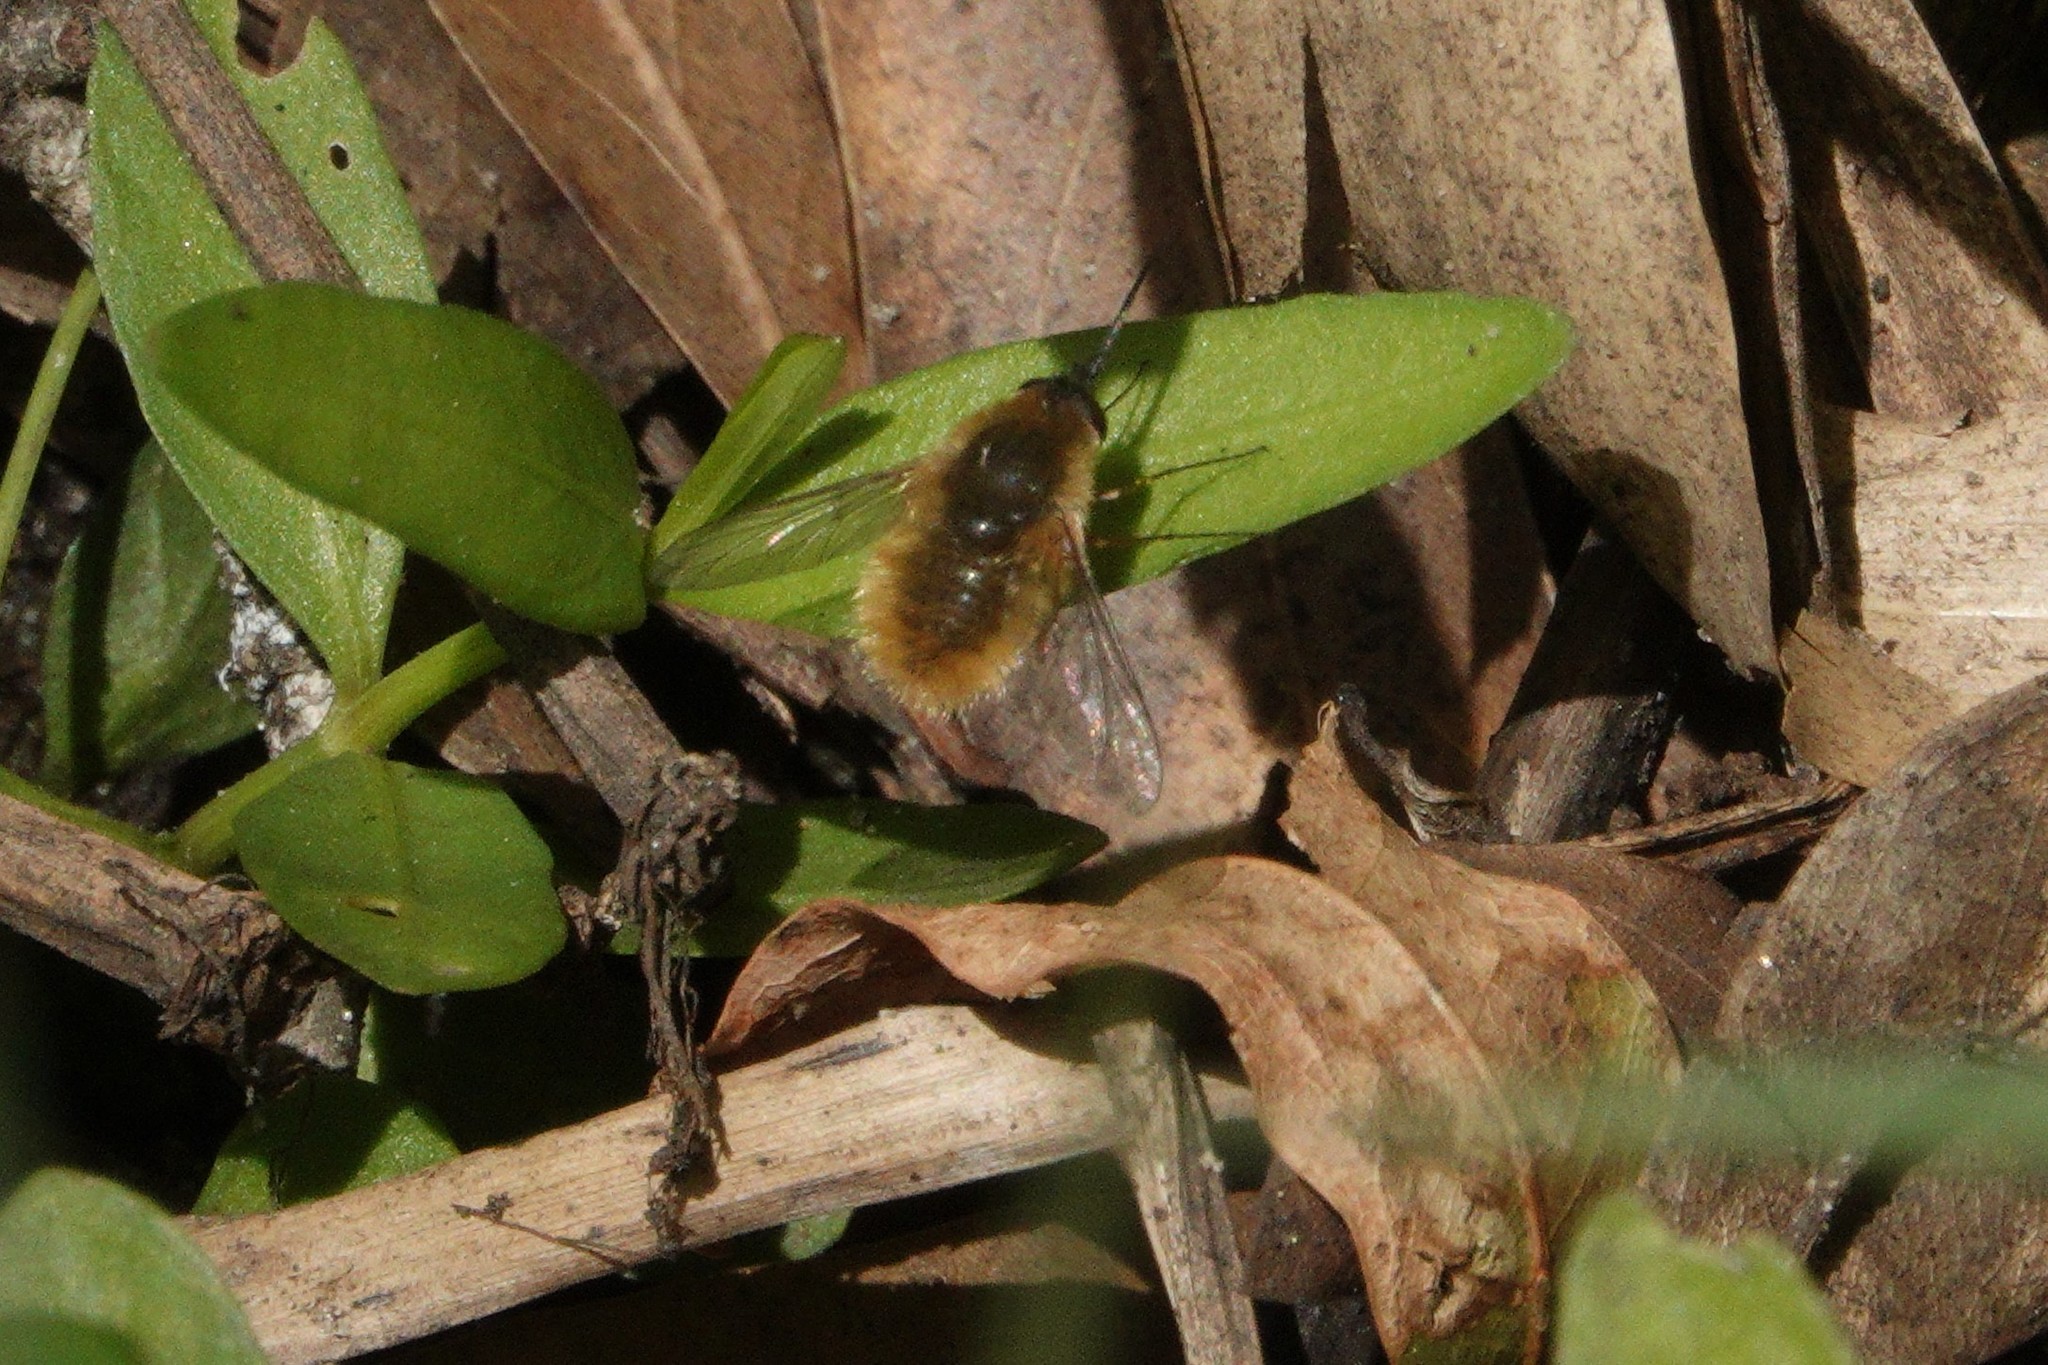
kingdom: Animalia
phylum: Arthropoda
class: Insecta
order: Diptera
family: Bombyliidae
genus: Systoechus
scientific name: Systoechus solitus
